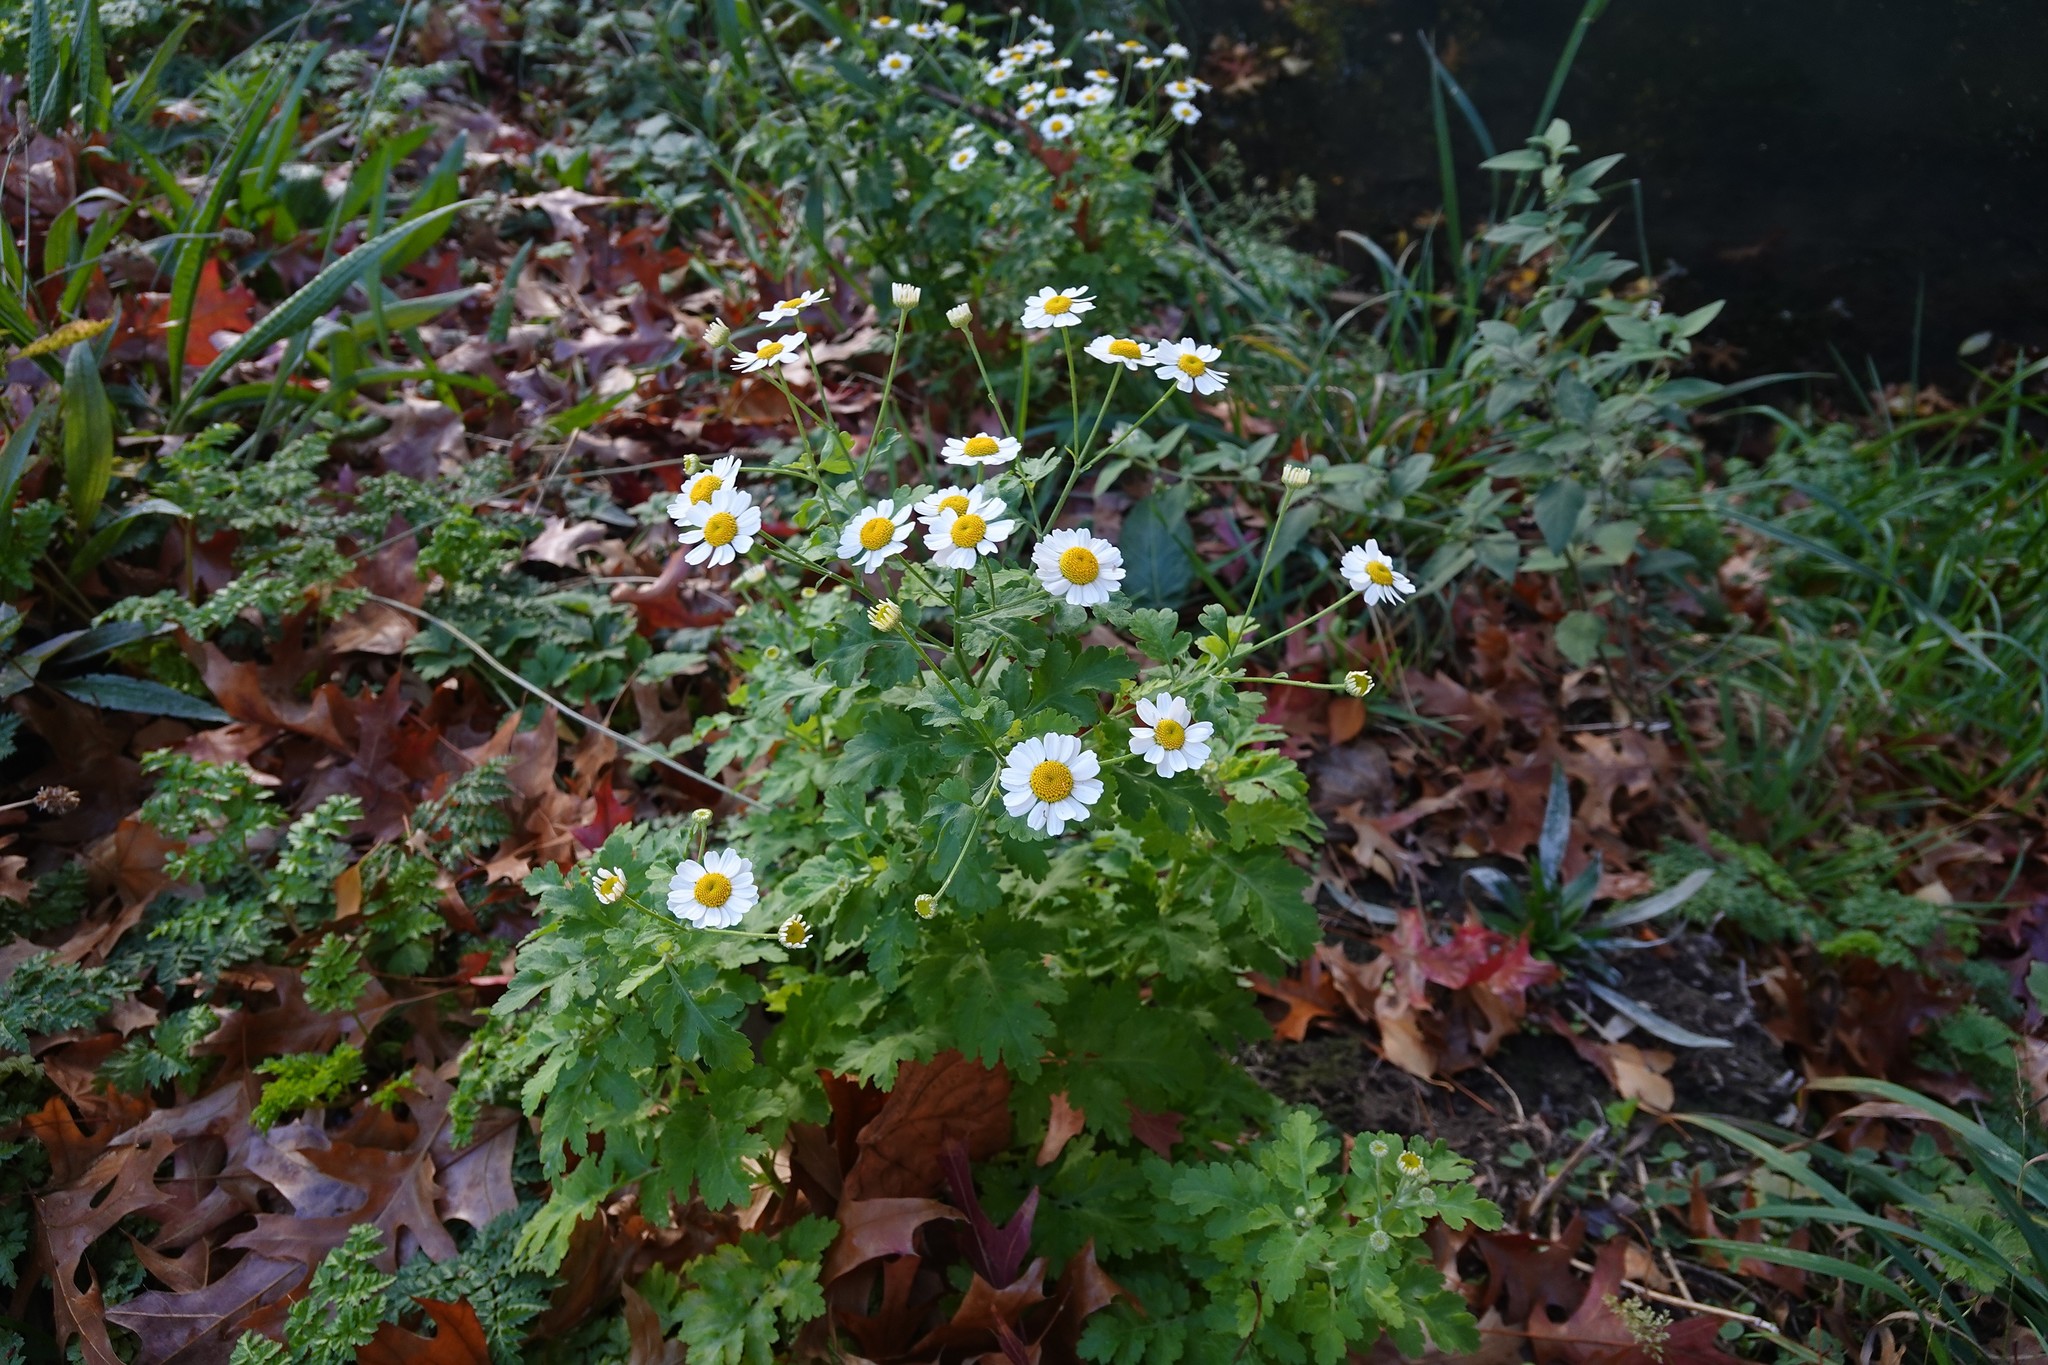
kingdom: Plantae
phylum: Tracheophyta
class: Magnoliopsida
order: Asterales
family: Asteraceae
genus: Tanacetum
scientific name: Tanacetum parthenium
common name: Feverfew
